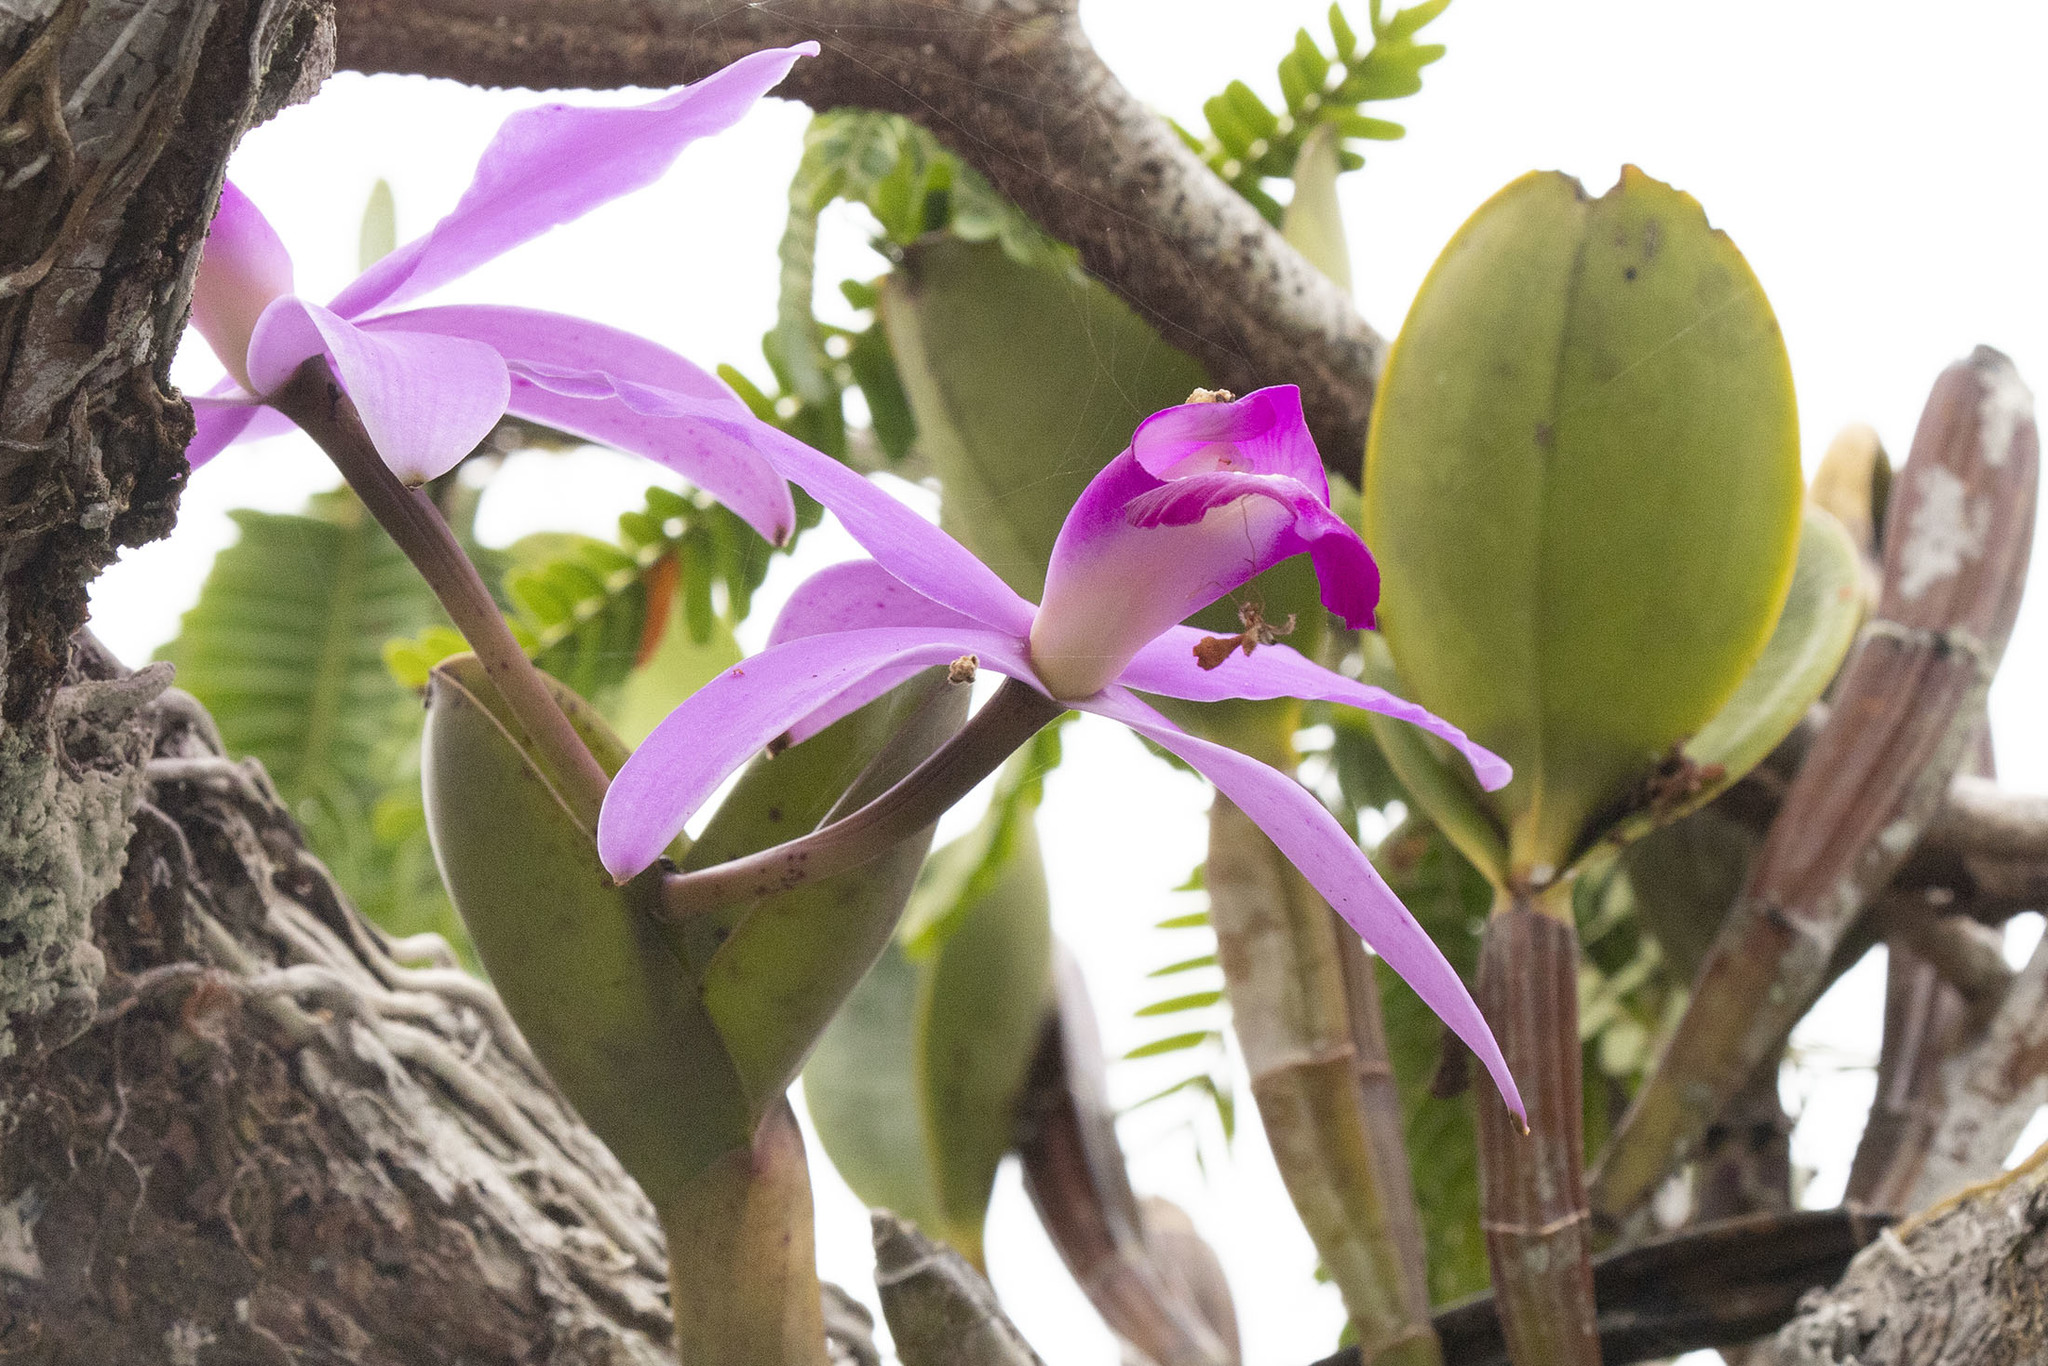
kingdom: Plantae
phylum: Tracheophyta
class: Liliopsida
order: Asparagales
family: Orchidaceae
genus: Cattleya
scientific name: Cattleya violacea
